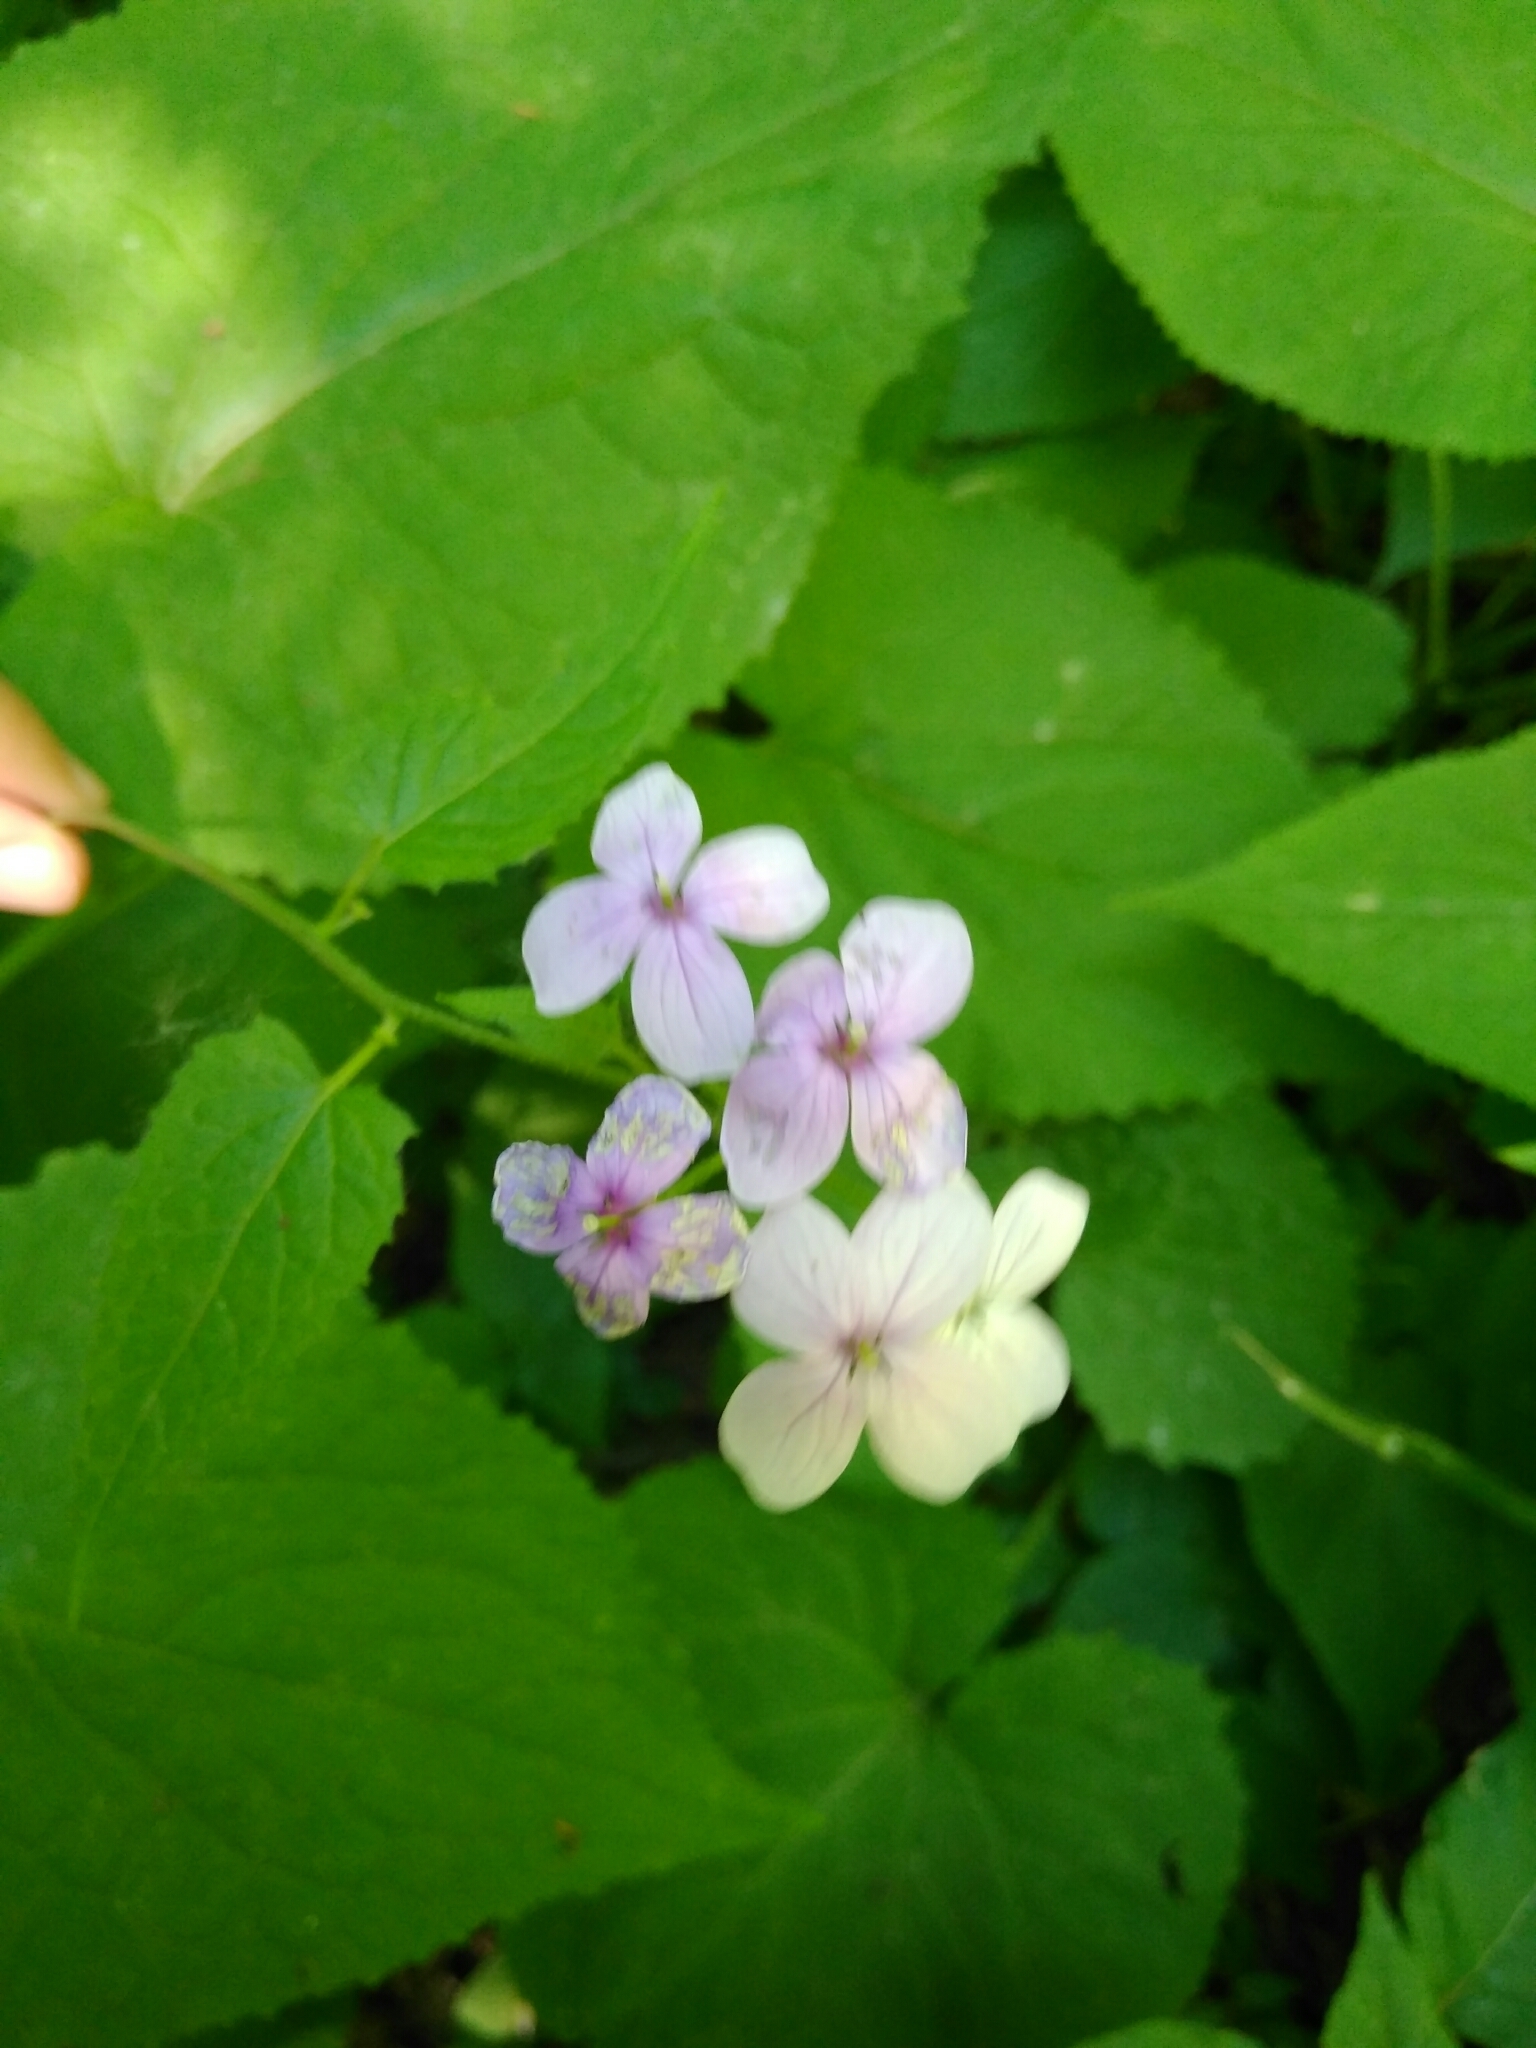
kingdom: Plantae
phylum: Tracheophyta
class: Magnoliopsida
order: Brassicales
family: Brassicaceae
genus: Lunaria
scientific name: Lunaria rediviva
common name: Perennial honesty
